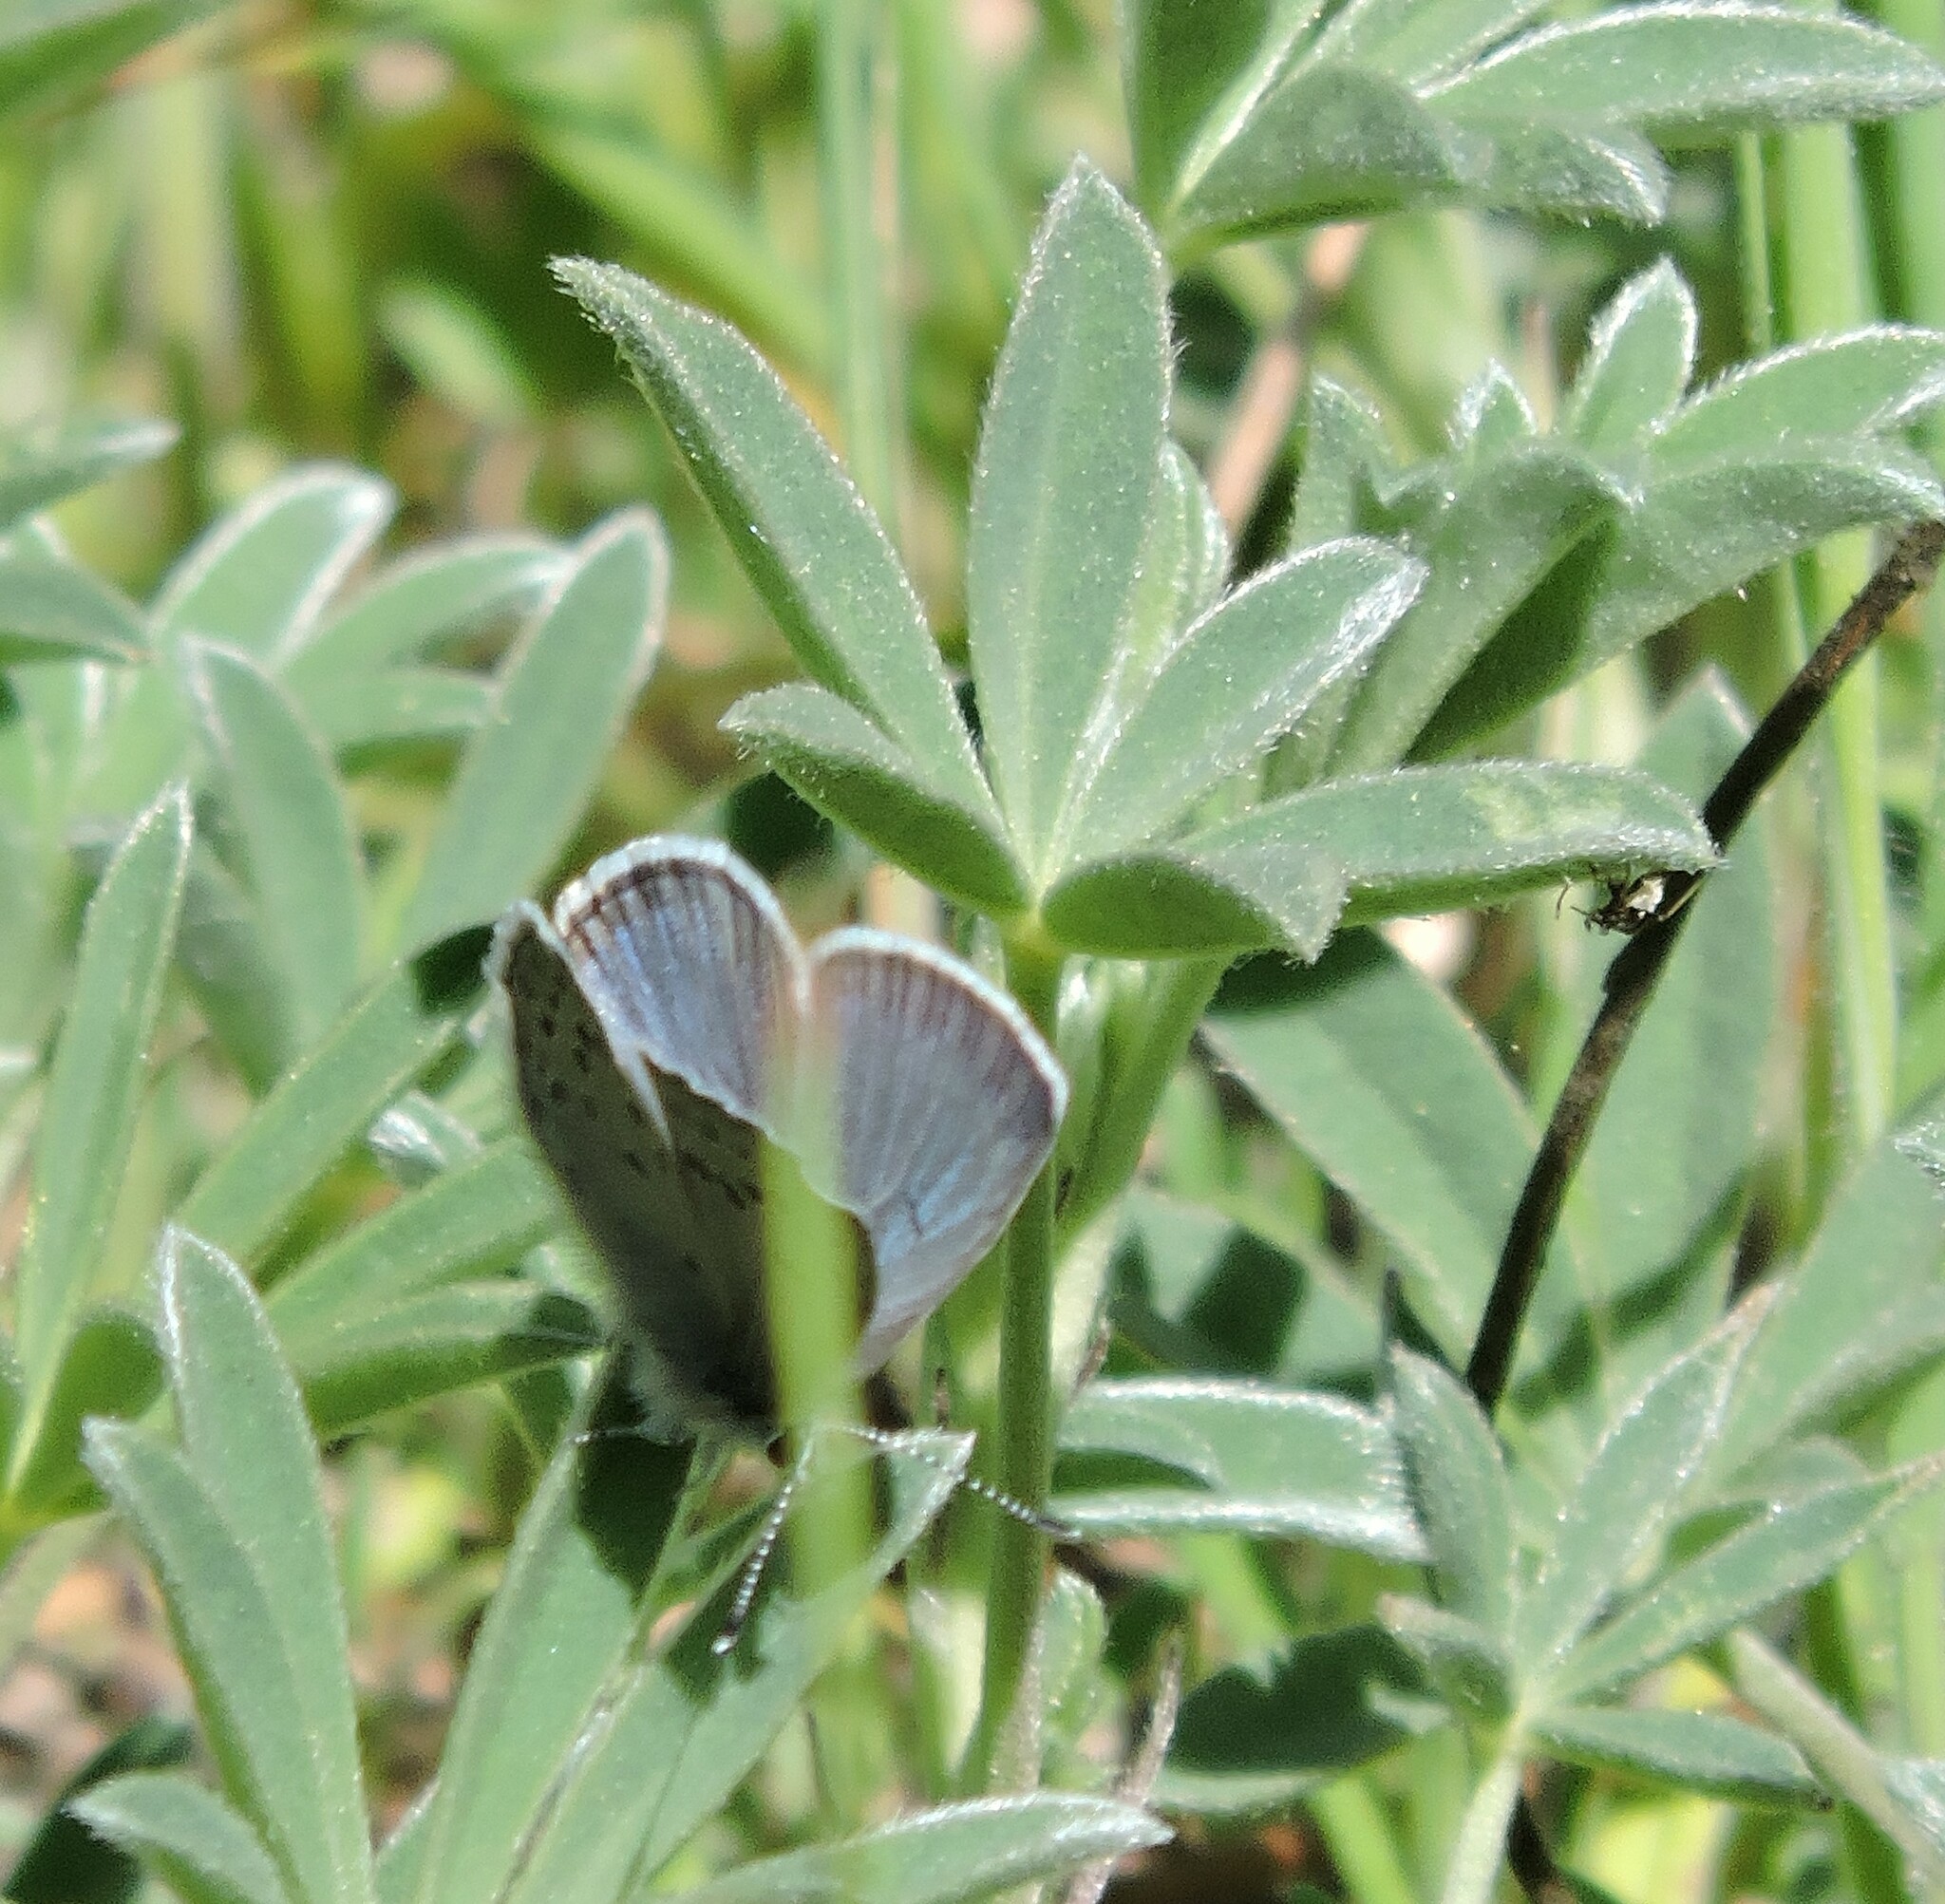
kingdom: Animalia
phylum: Arthropoda
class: Insecta
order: Lepidoptera
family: Lycaenidae
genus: Icaricia
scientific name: Icaricia icarioides
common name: Boisduval's blue
